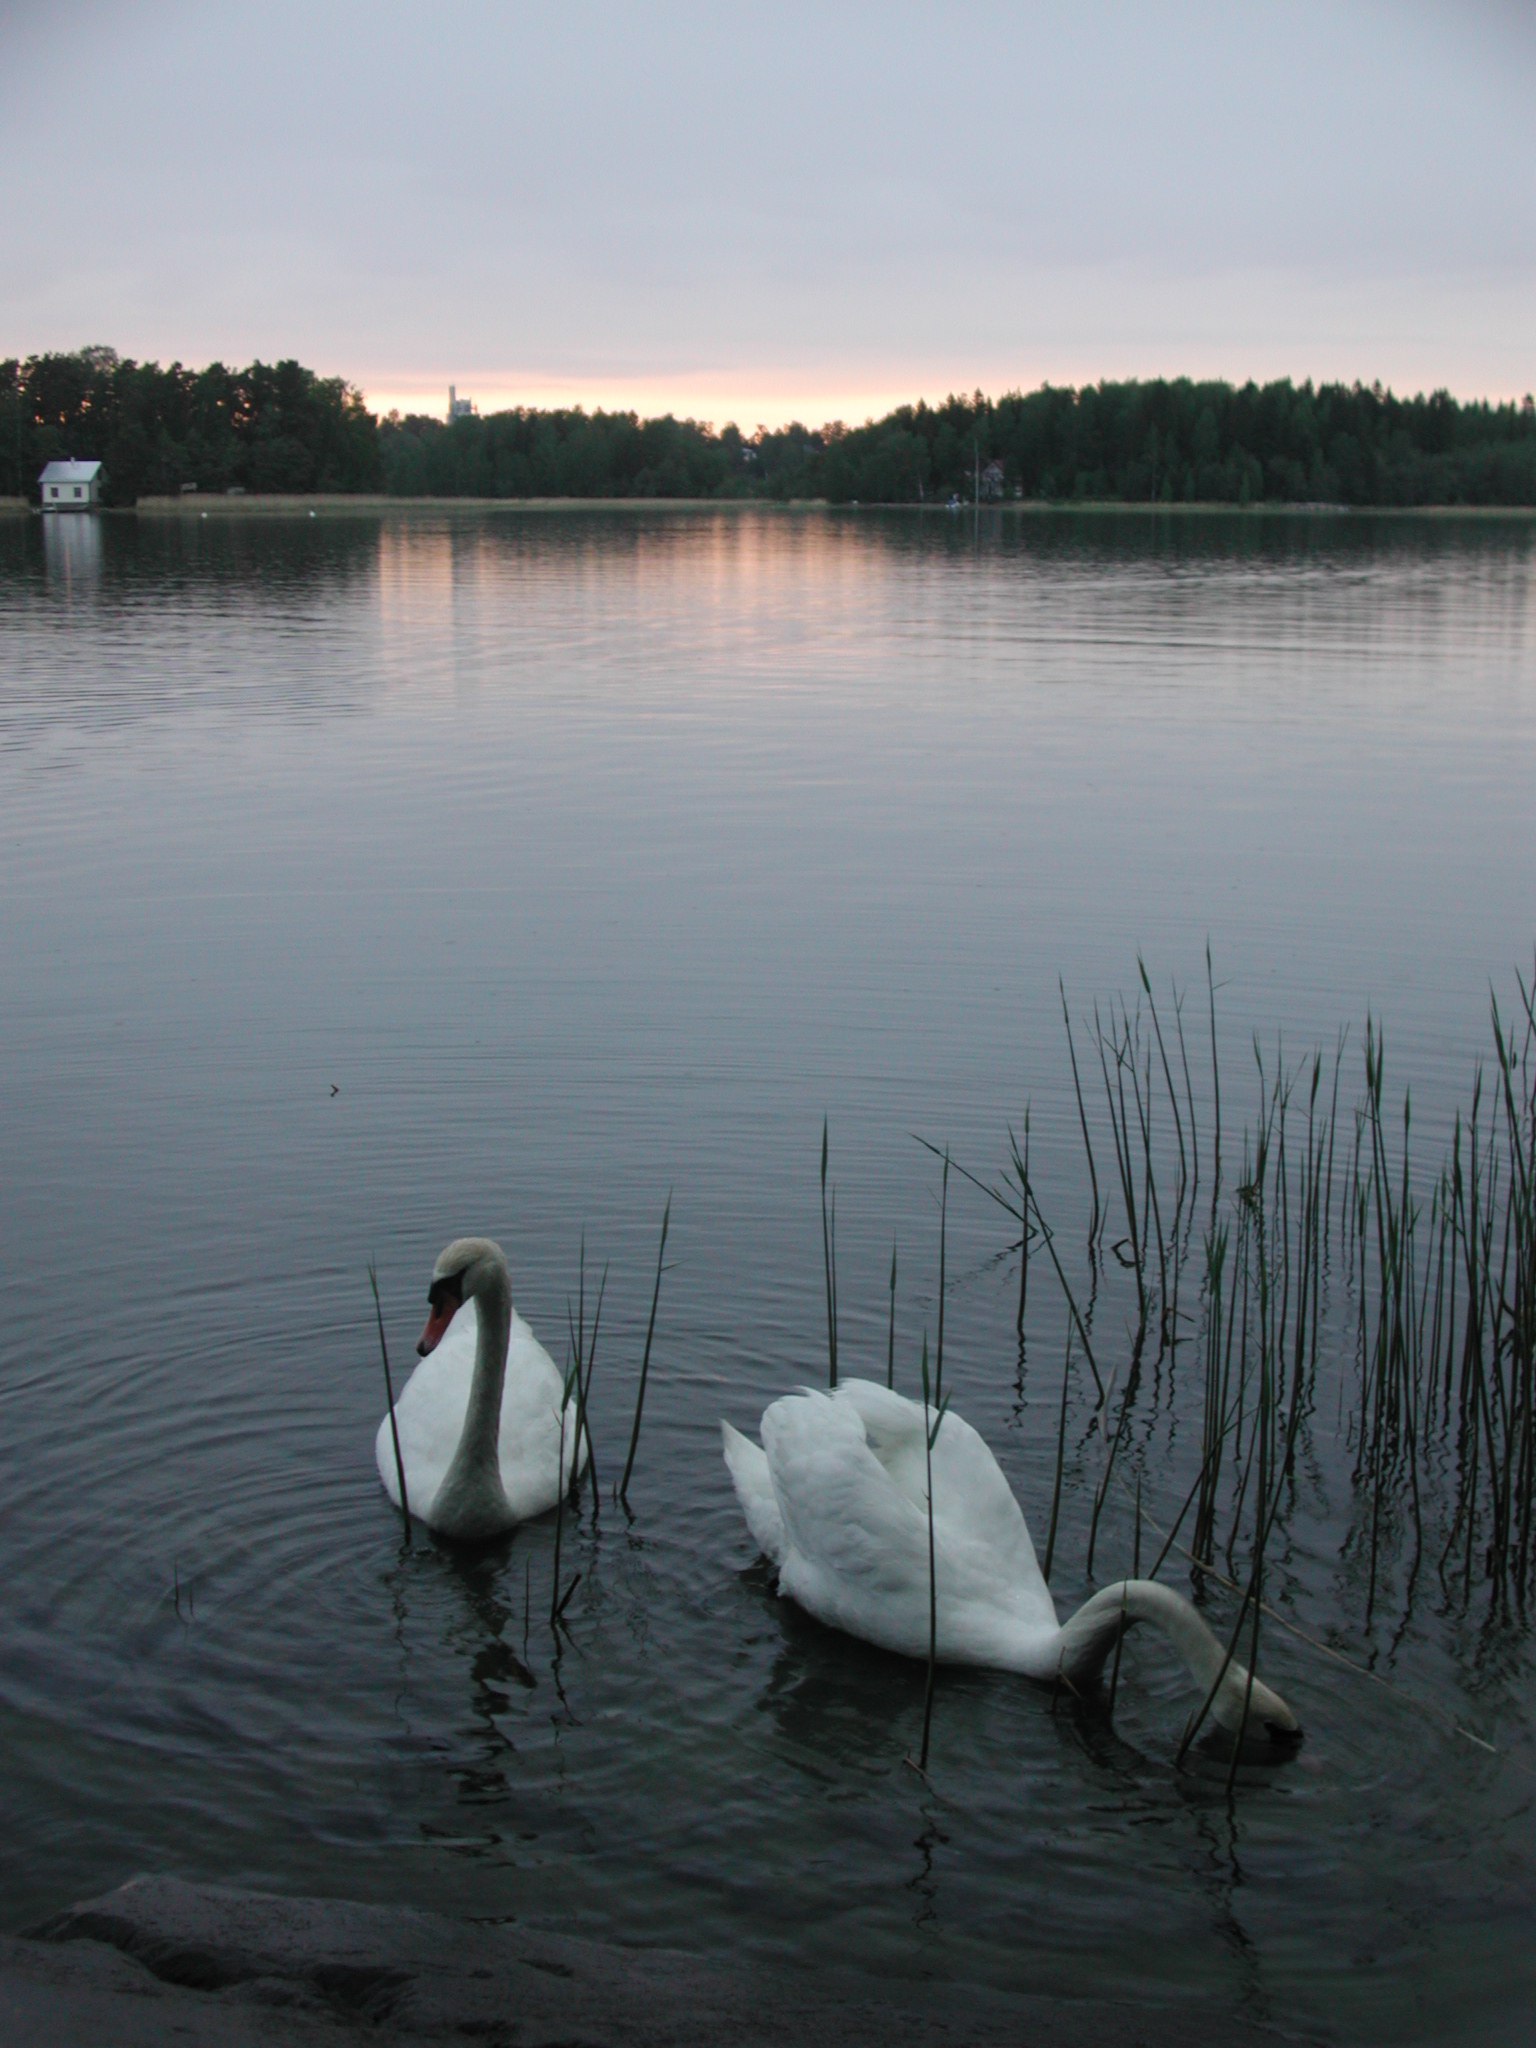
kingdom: Animalia
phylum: Chordata
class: Aves
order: Anseriformes
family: Anatidae
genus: Cygnus
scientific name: Cygnus olor
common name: Mute swan
